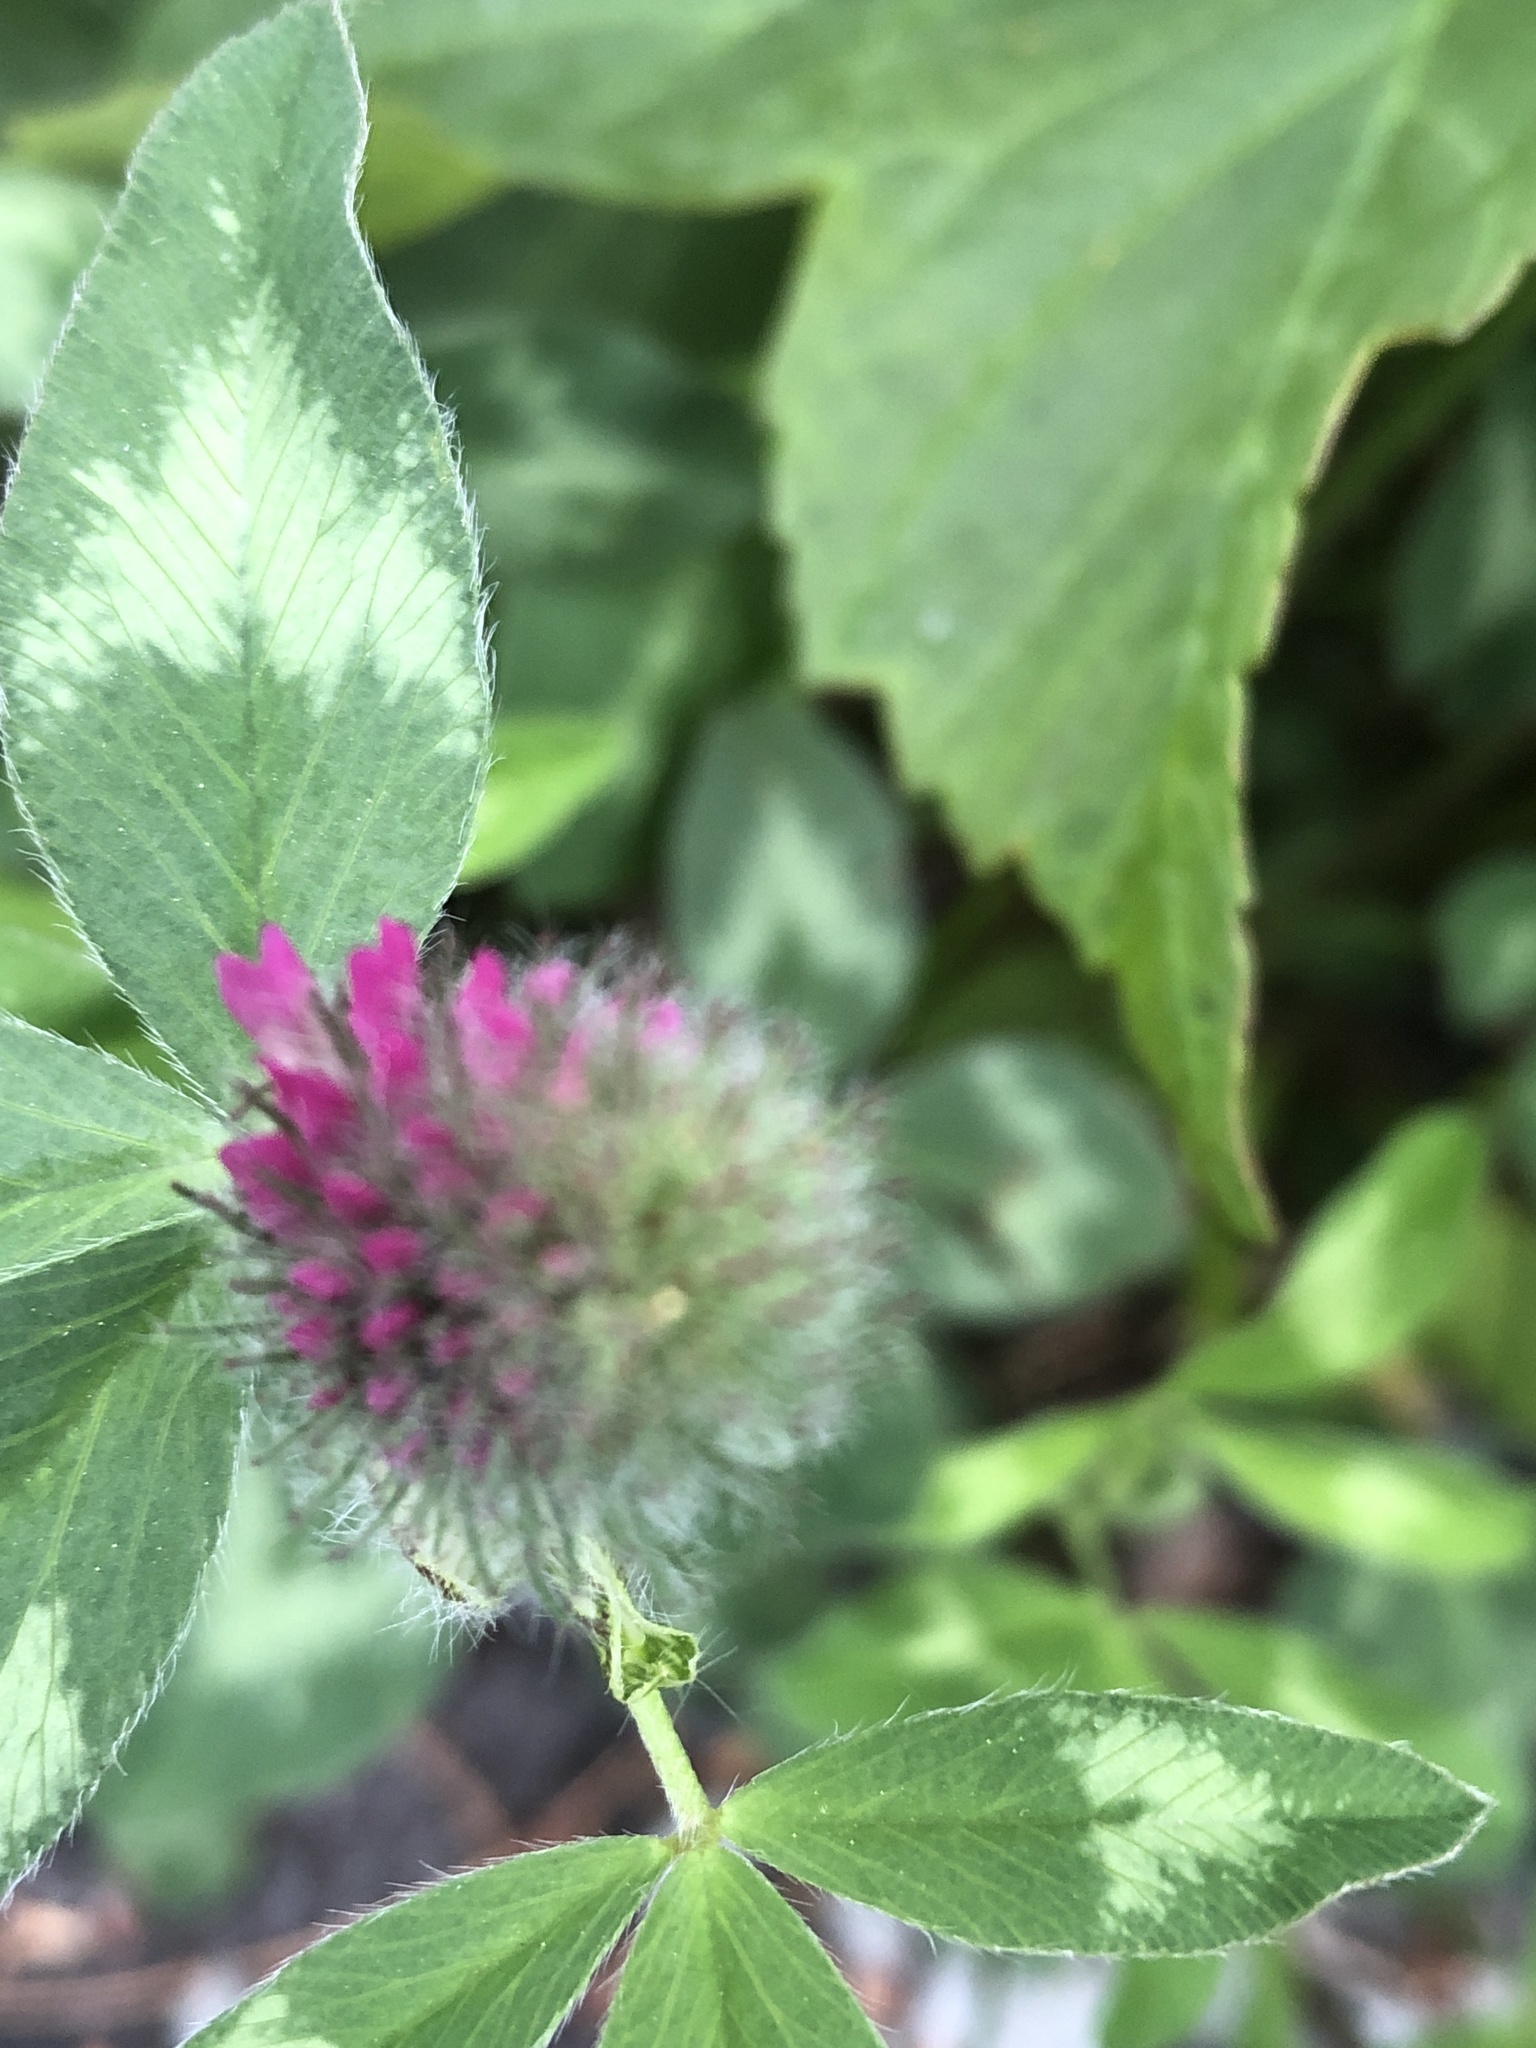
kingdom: Plantae
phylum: Tracheophyta
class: Magnoliopsida
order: Fabales
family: Fabaceae
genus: Trifolium
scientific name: Trifolium pratense
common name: Red clover
